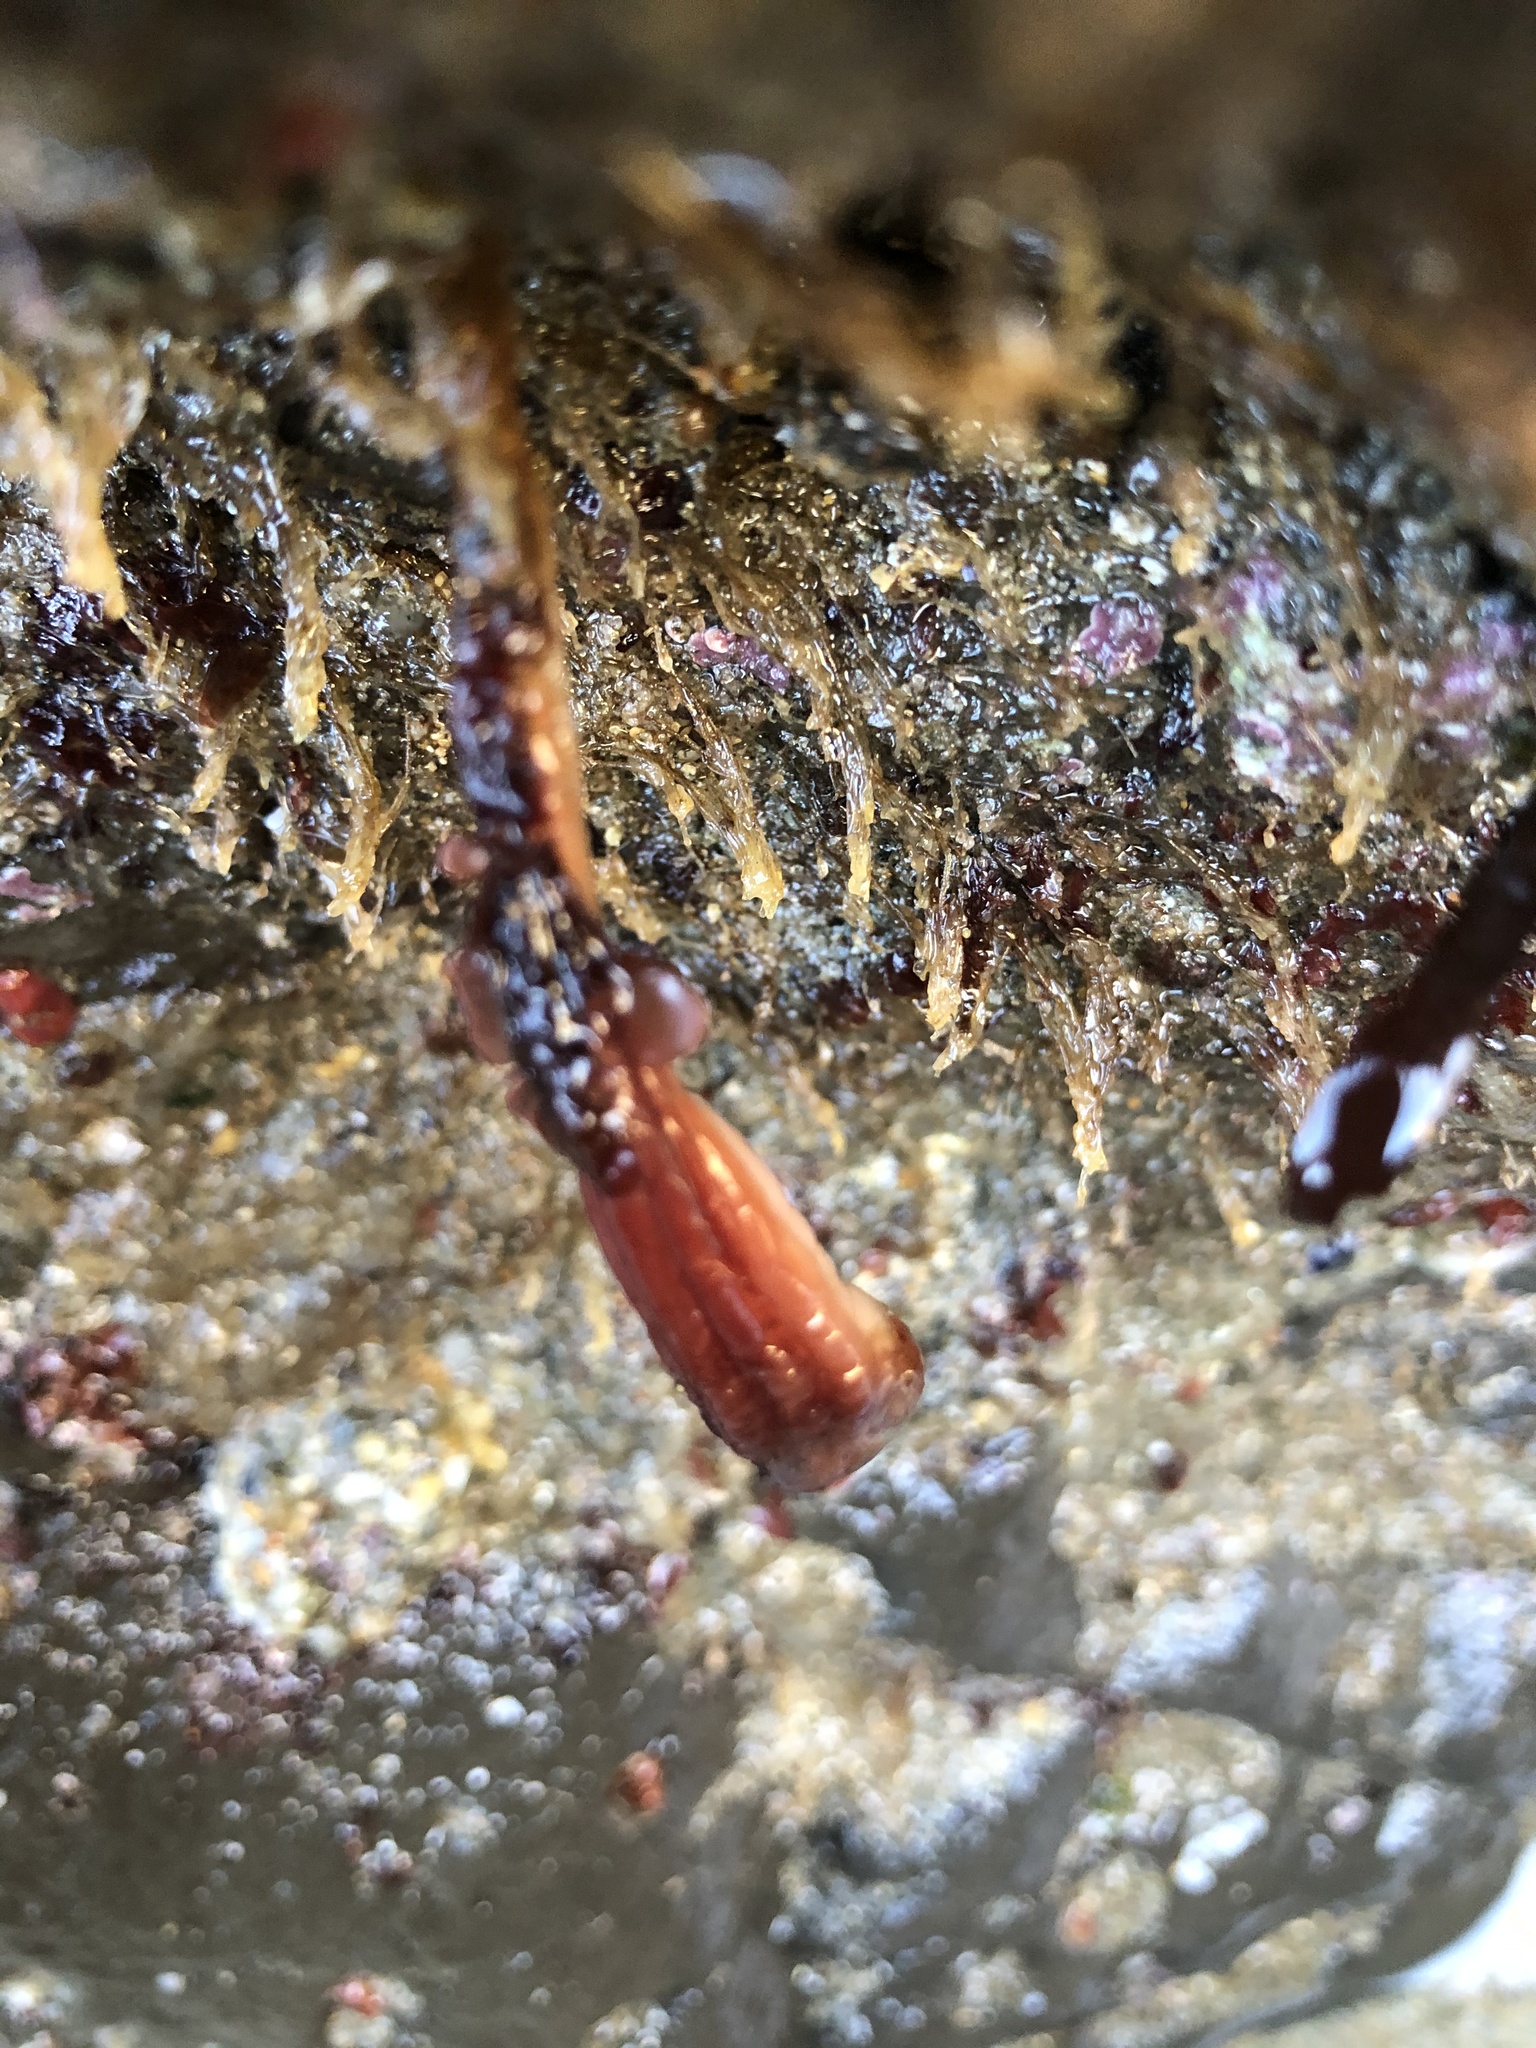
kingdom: Animalia
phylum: Chordata
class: Ascidiacea
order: Stolidobranchia
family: Styelidae
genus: Styela
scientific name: Styela montereyensis
